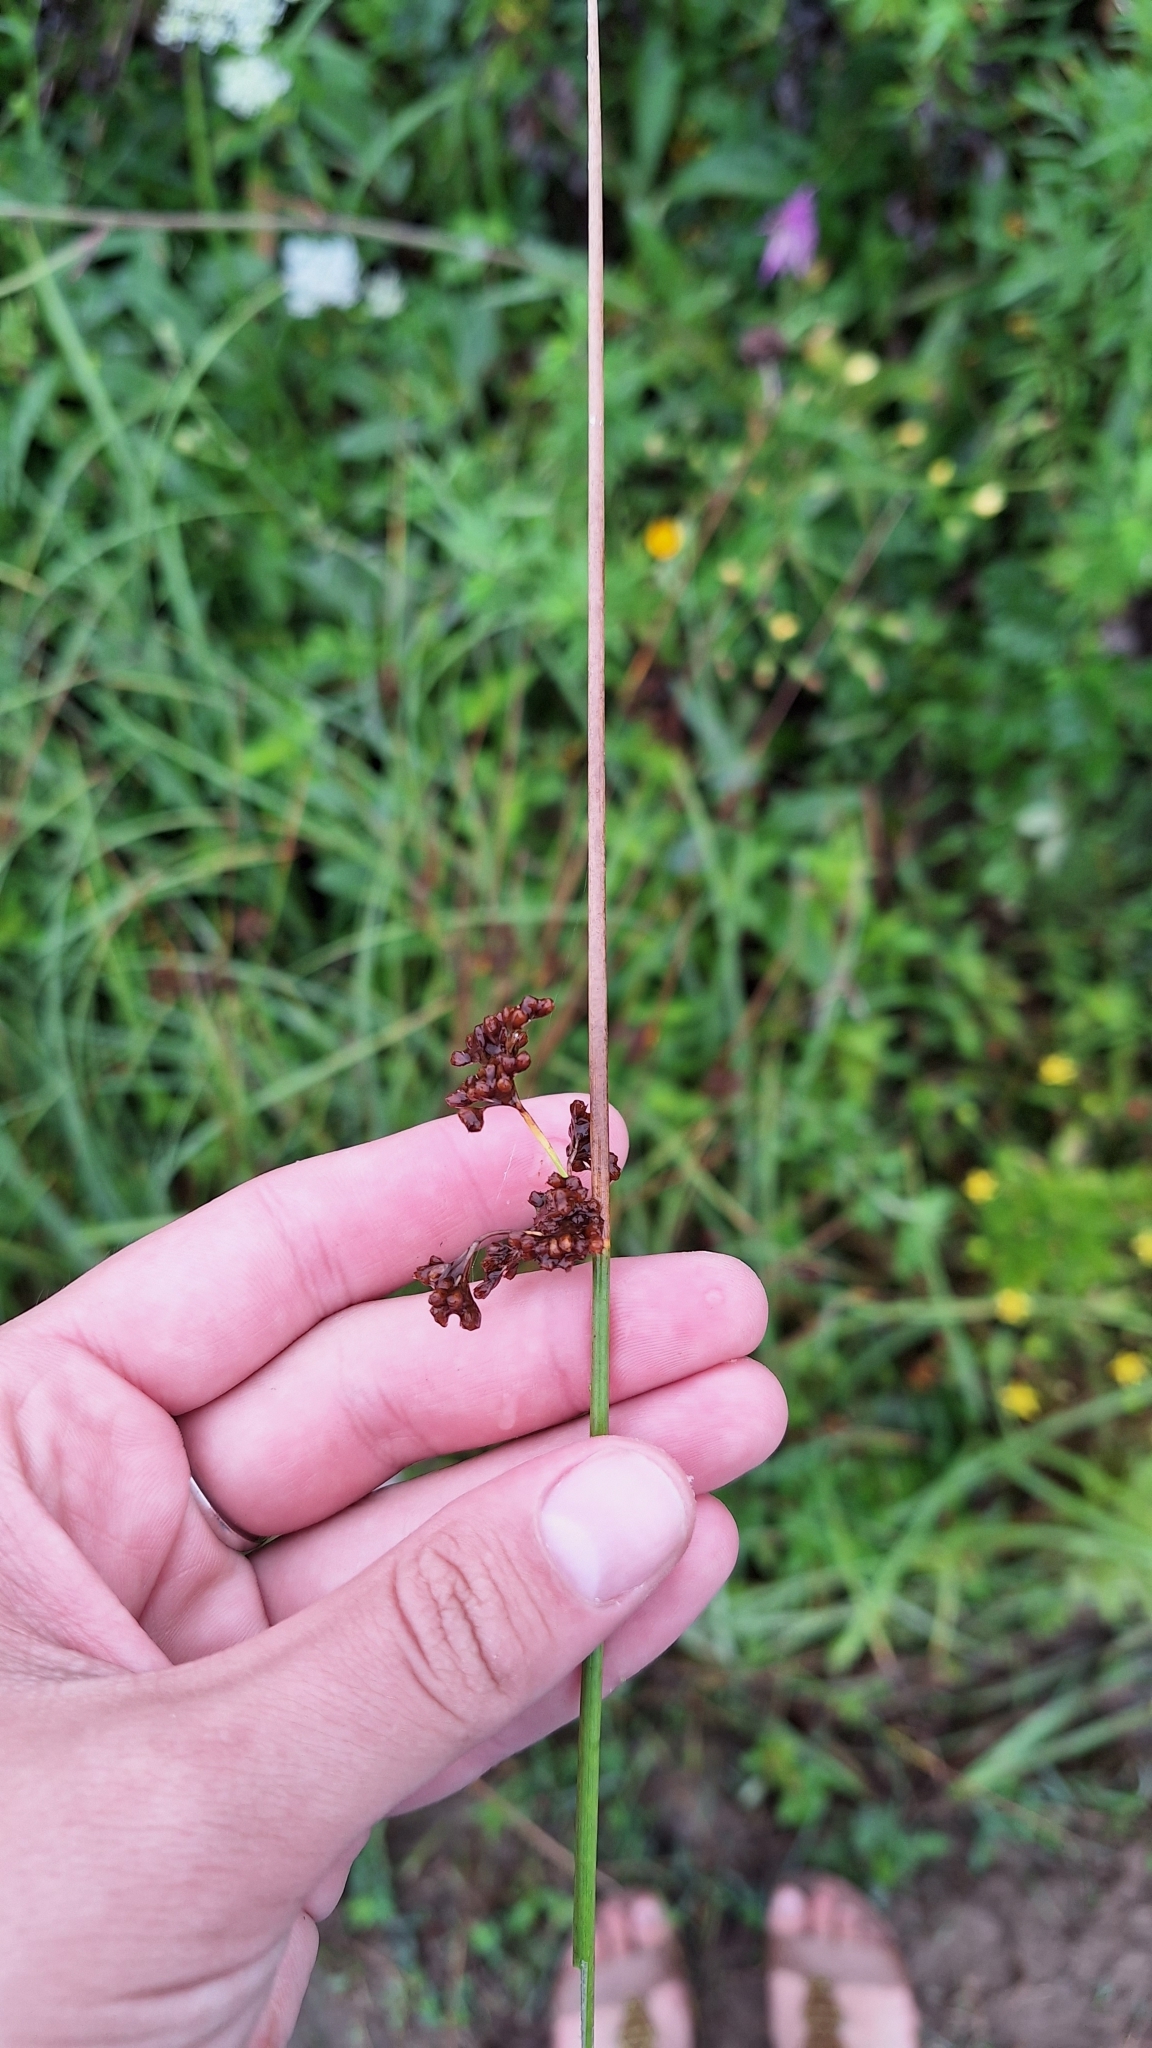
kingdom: Plantae
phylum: Tracheophyta
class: Liliopsida
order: Poales
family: Juncaceae
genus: Juncus
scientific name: Juncus decipiens
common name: Lamp rush
